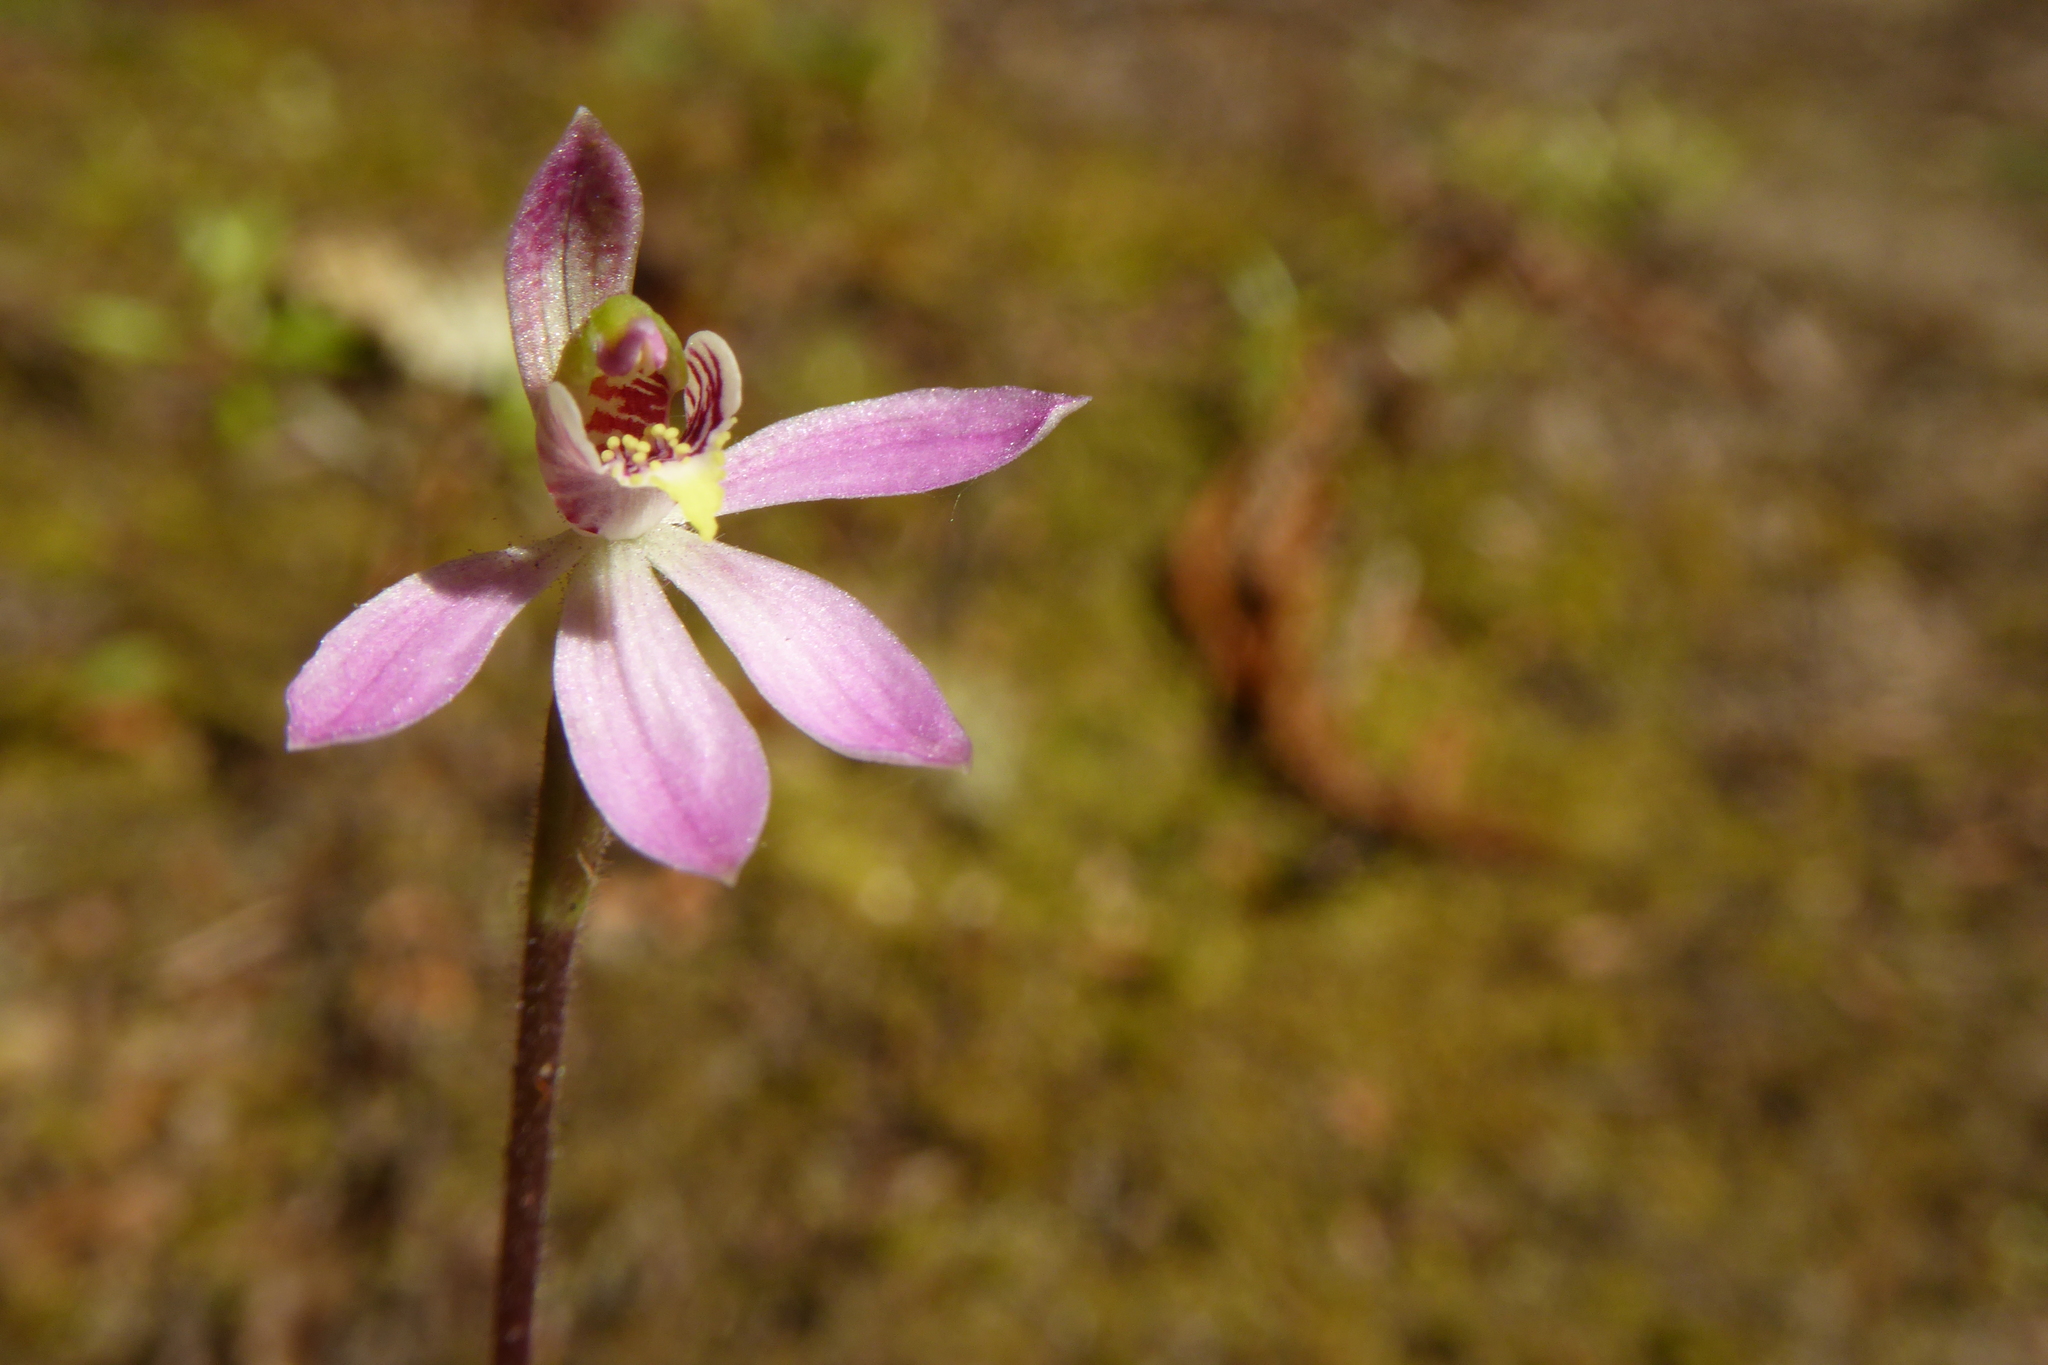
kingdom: Plantae
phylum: Tracheophyta
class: Liliopsida
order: Asparagales
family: Orchidaceae
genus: Caladenia
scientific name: Caladenia variegata
